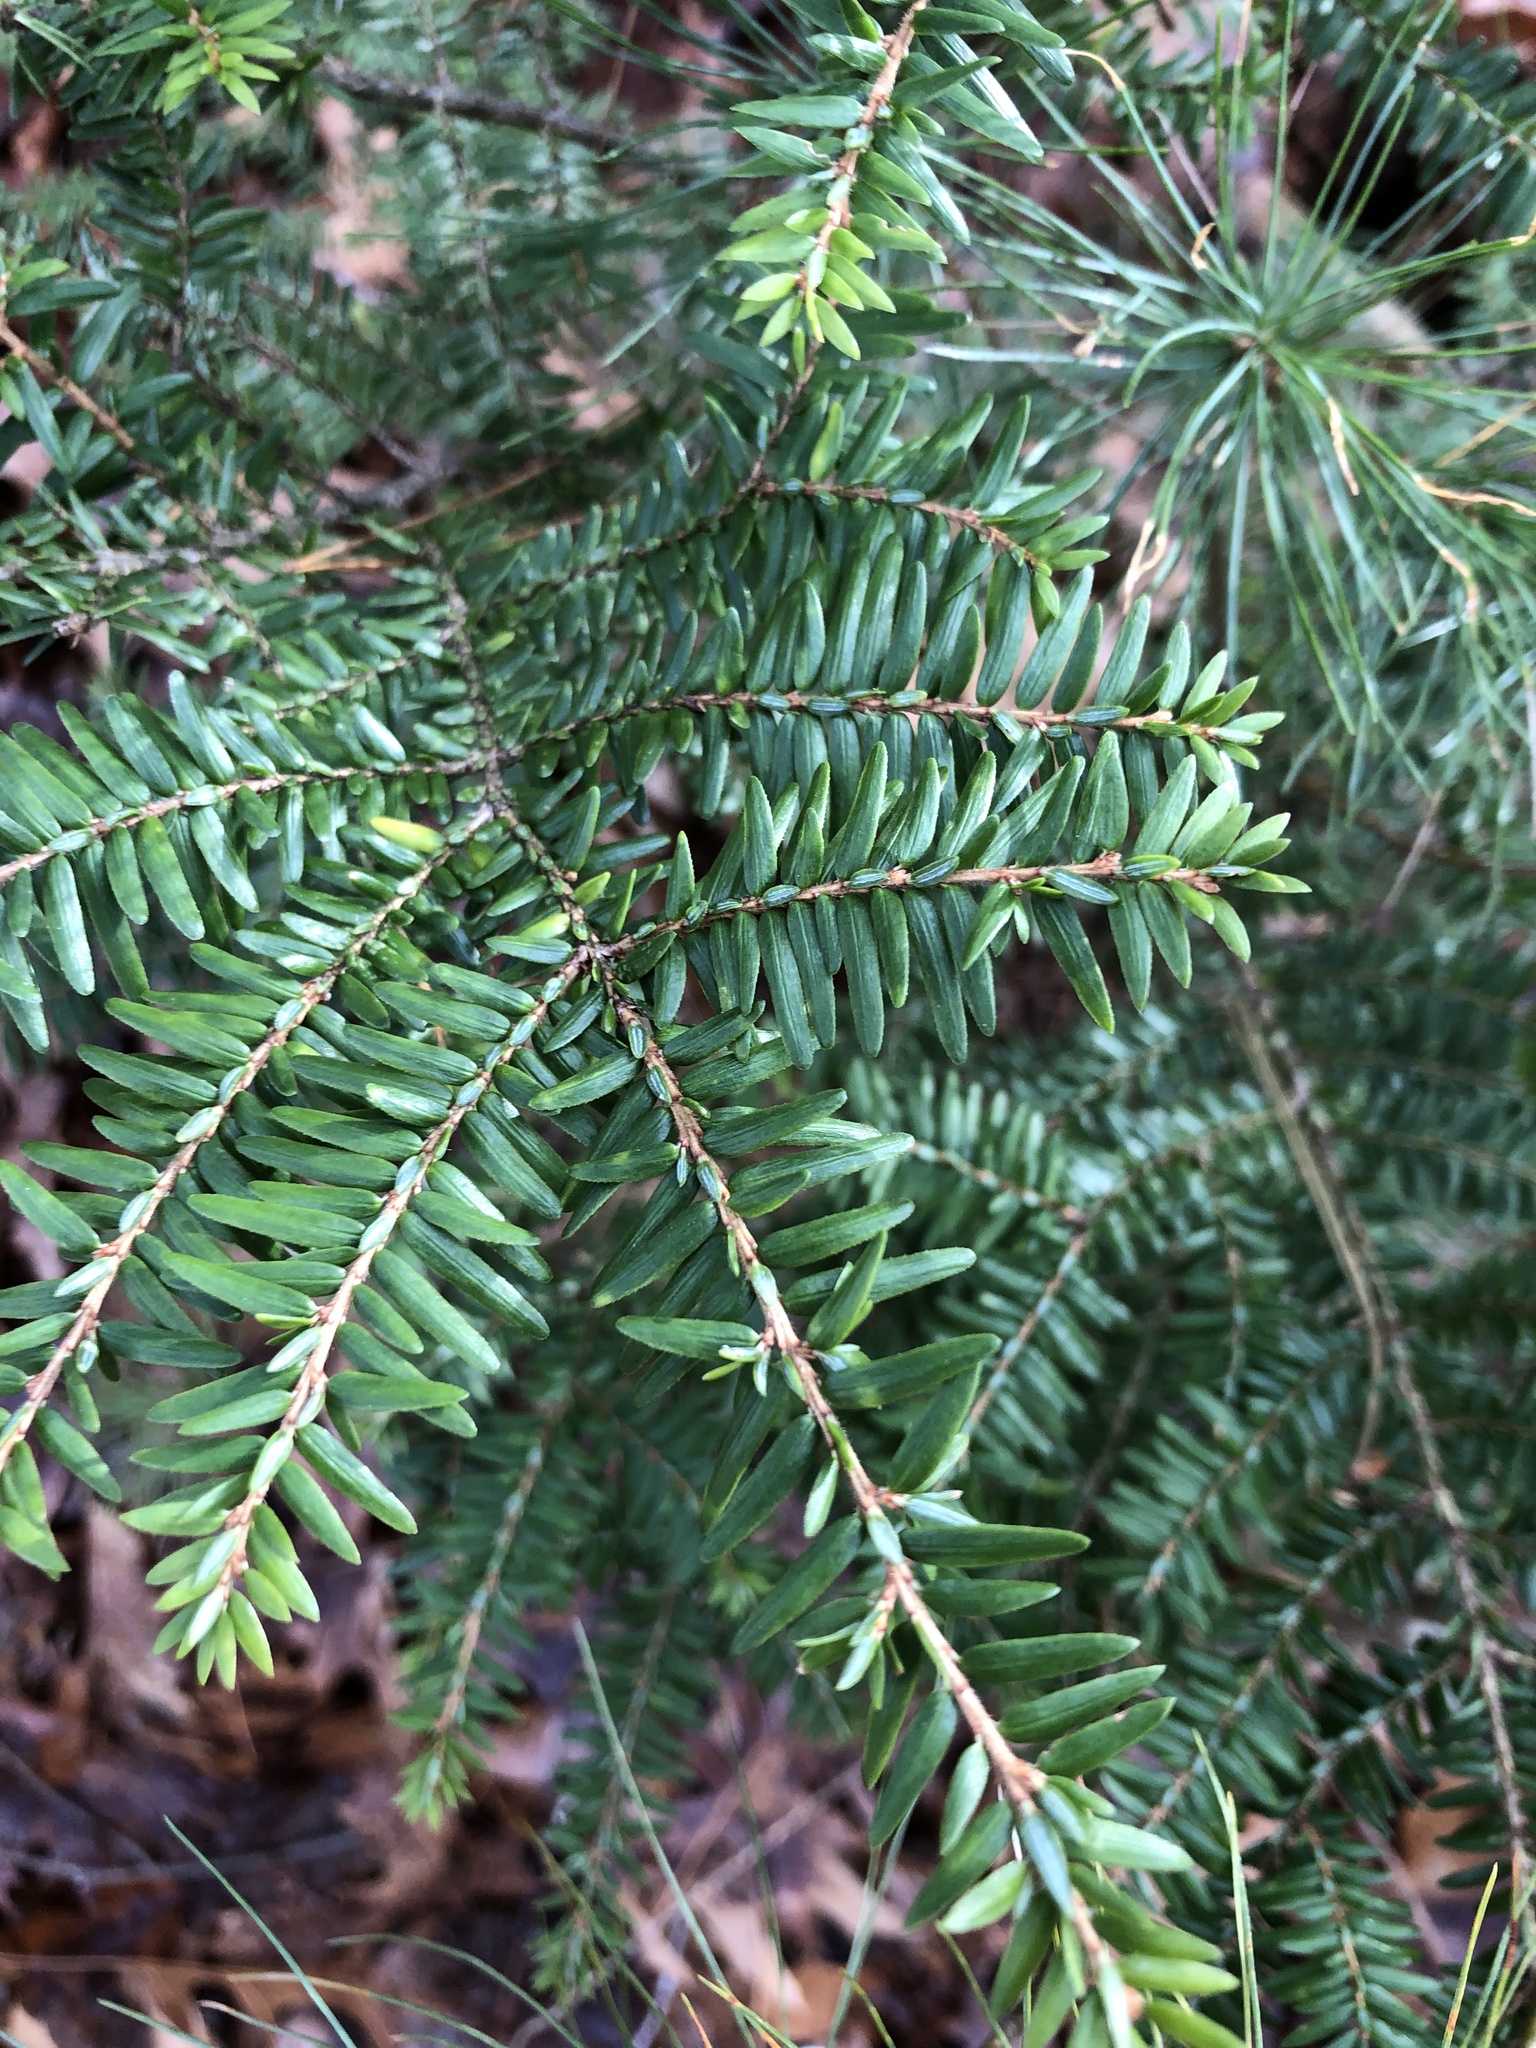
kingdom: Plantae
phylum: Tracheophyta
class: Pinopsida
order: Pinales
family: Pinaceae
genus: Tsuga
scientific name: Tsuga canadensis
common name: Eastern hemlock
